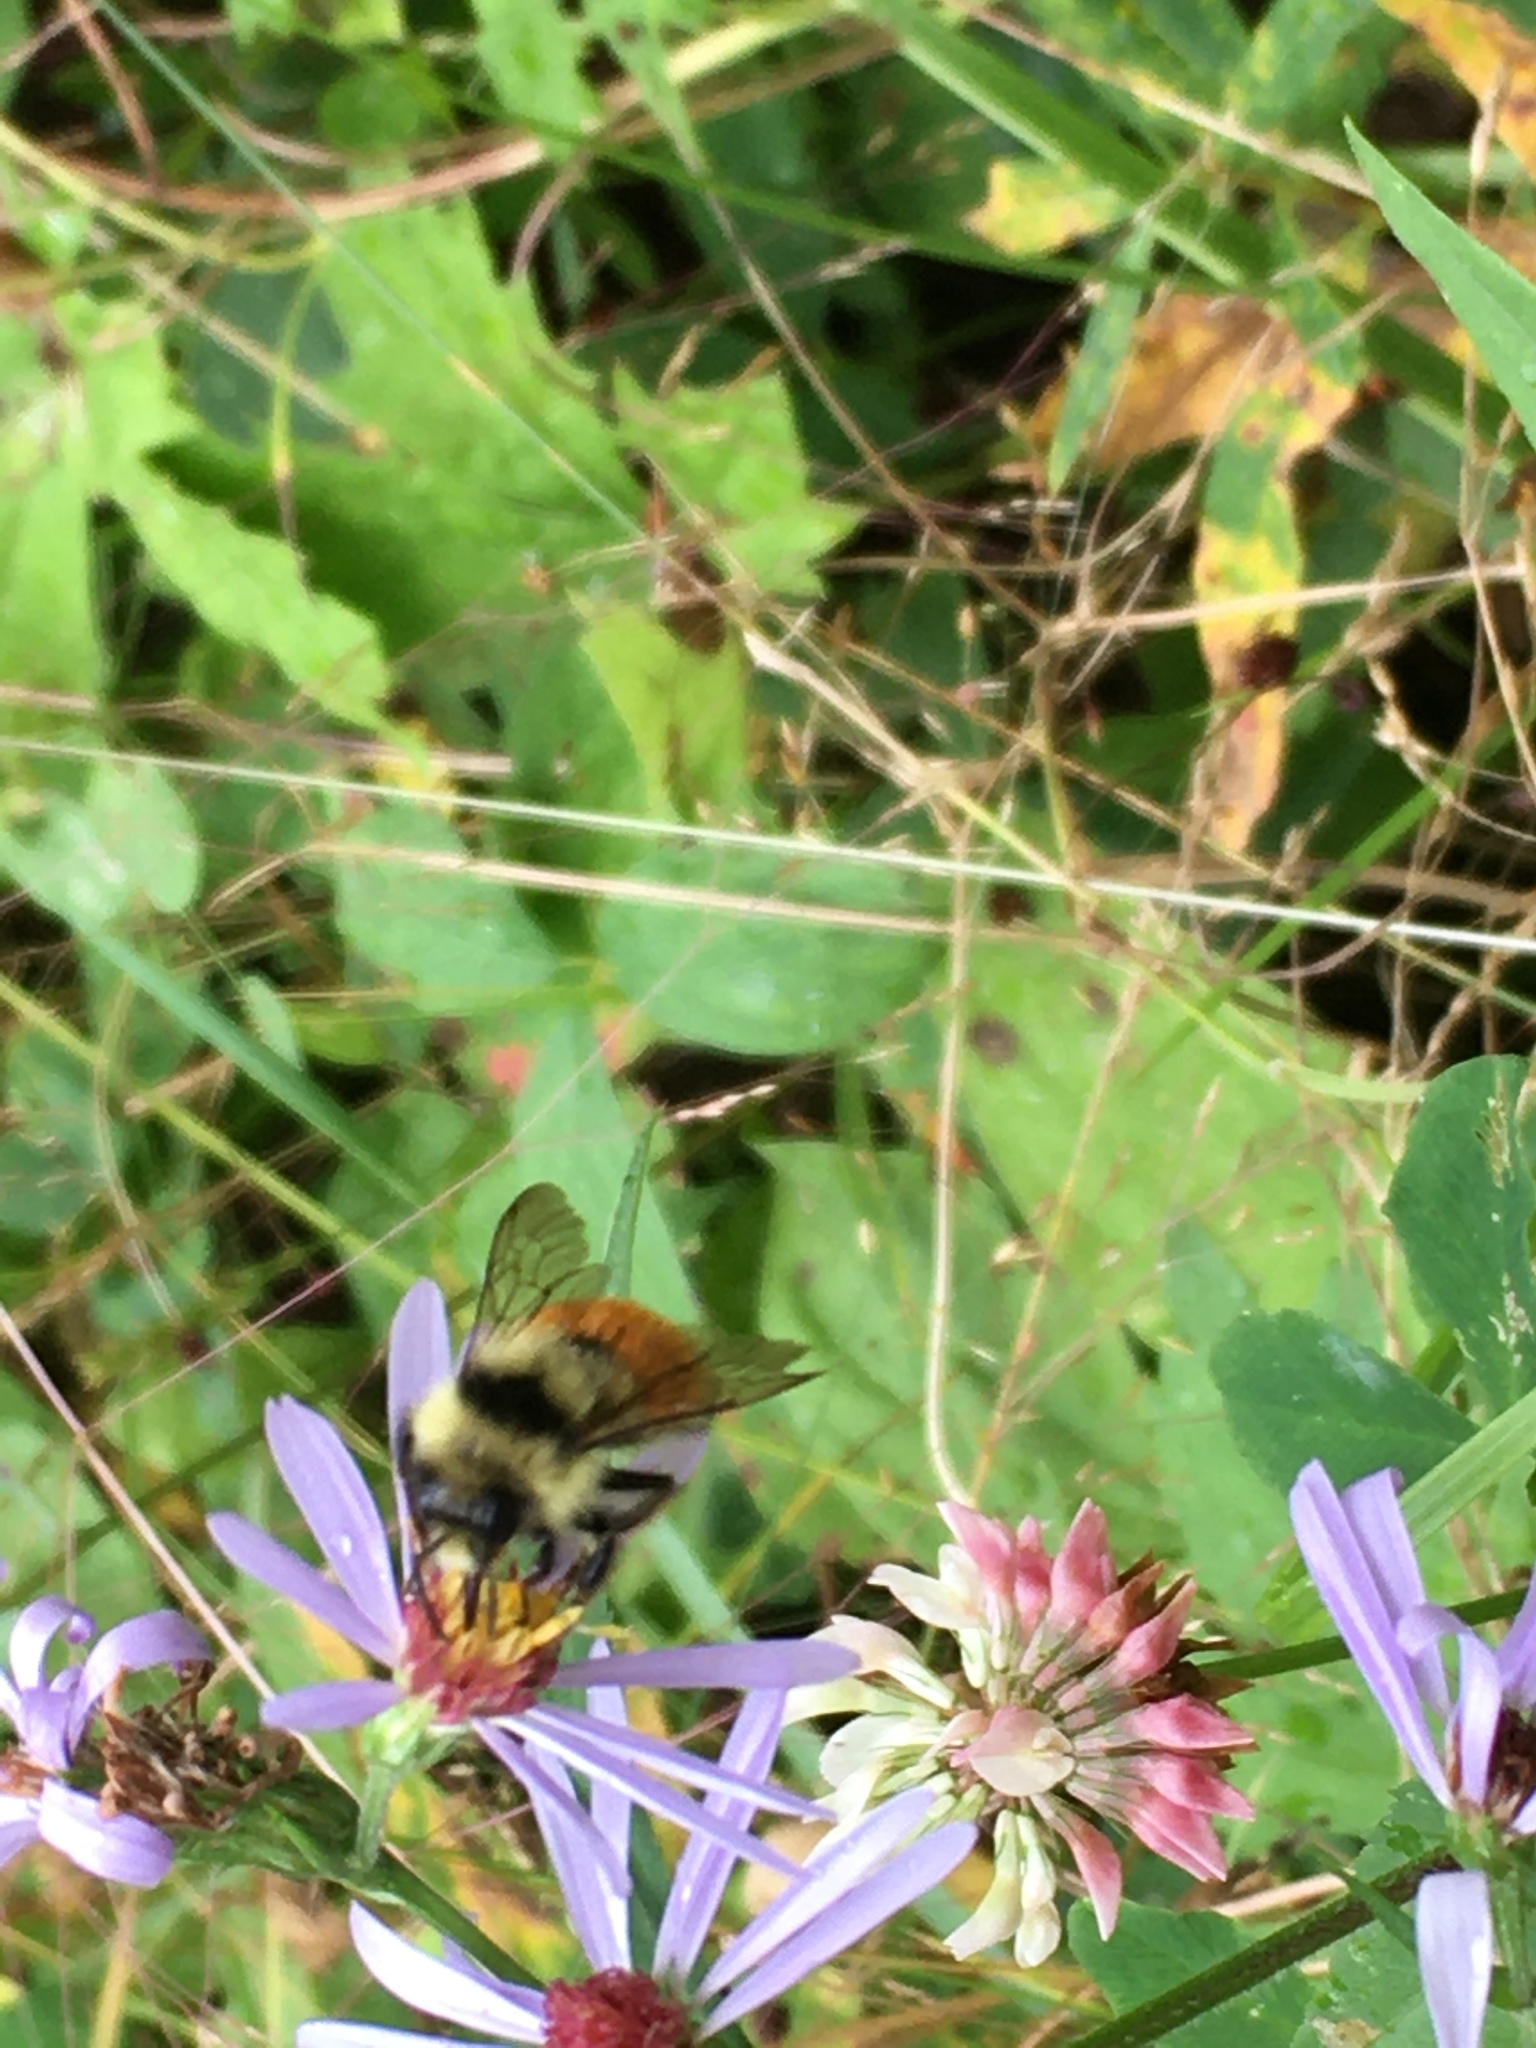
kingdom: Animalia
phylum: Arthropoda
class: Insecta
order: Hymenoptera
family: Apidae
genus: Bombus
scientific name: Bombus ternarius
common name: Tri-colored bumble bee
